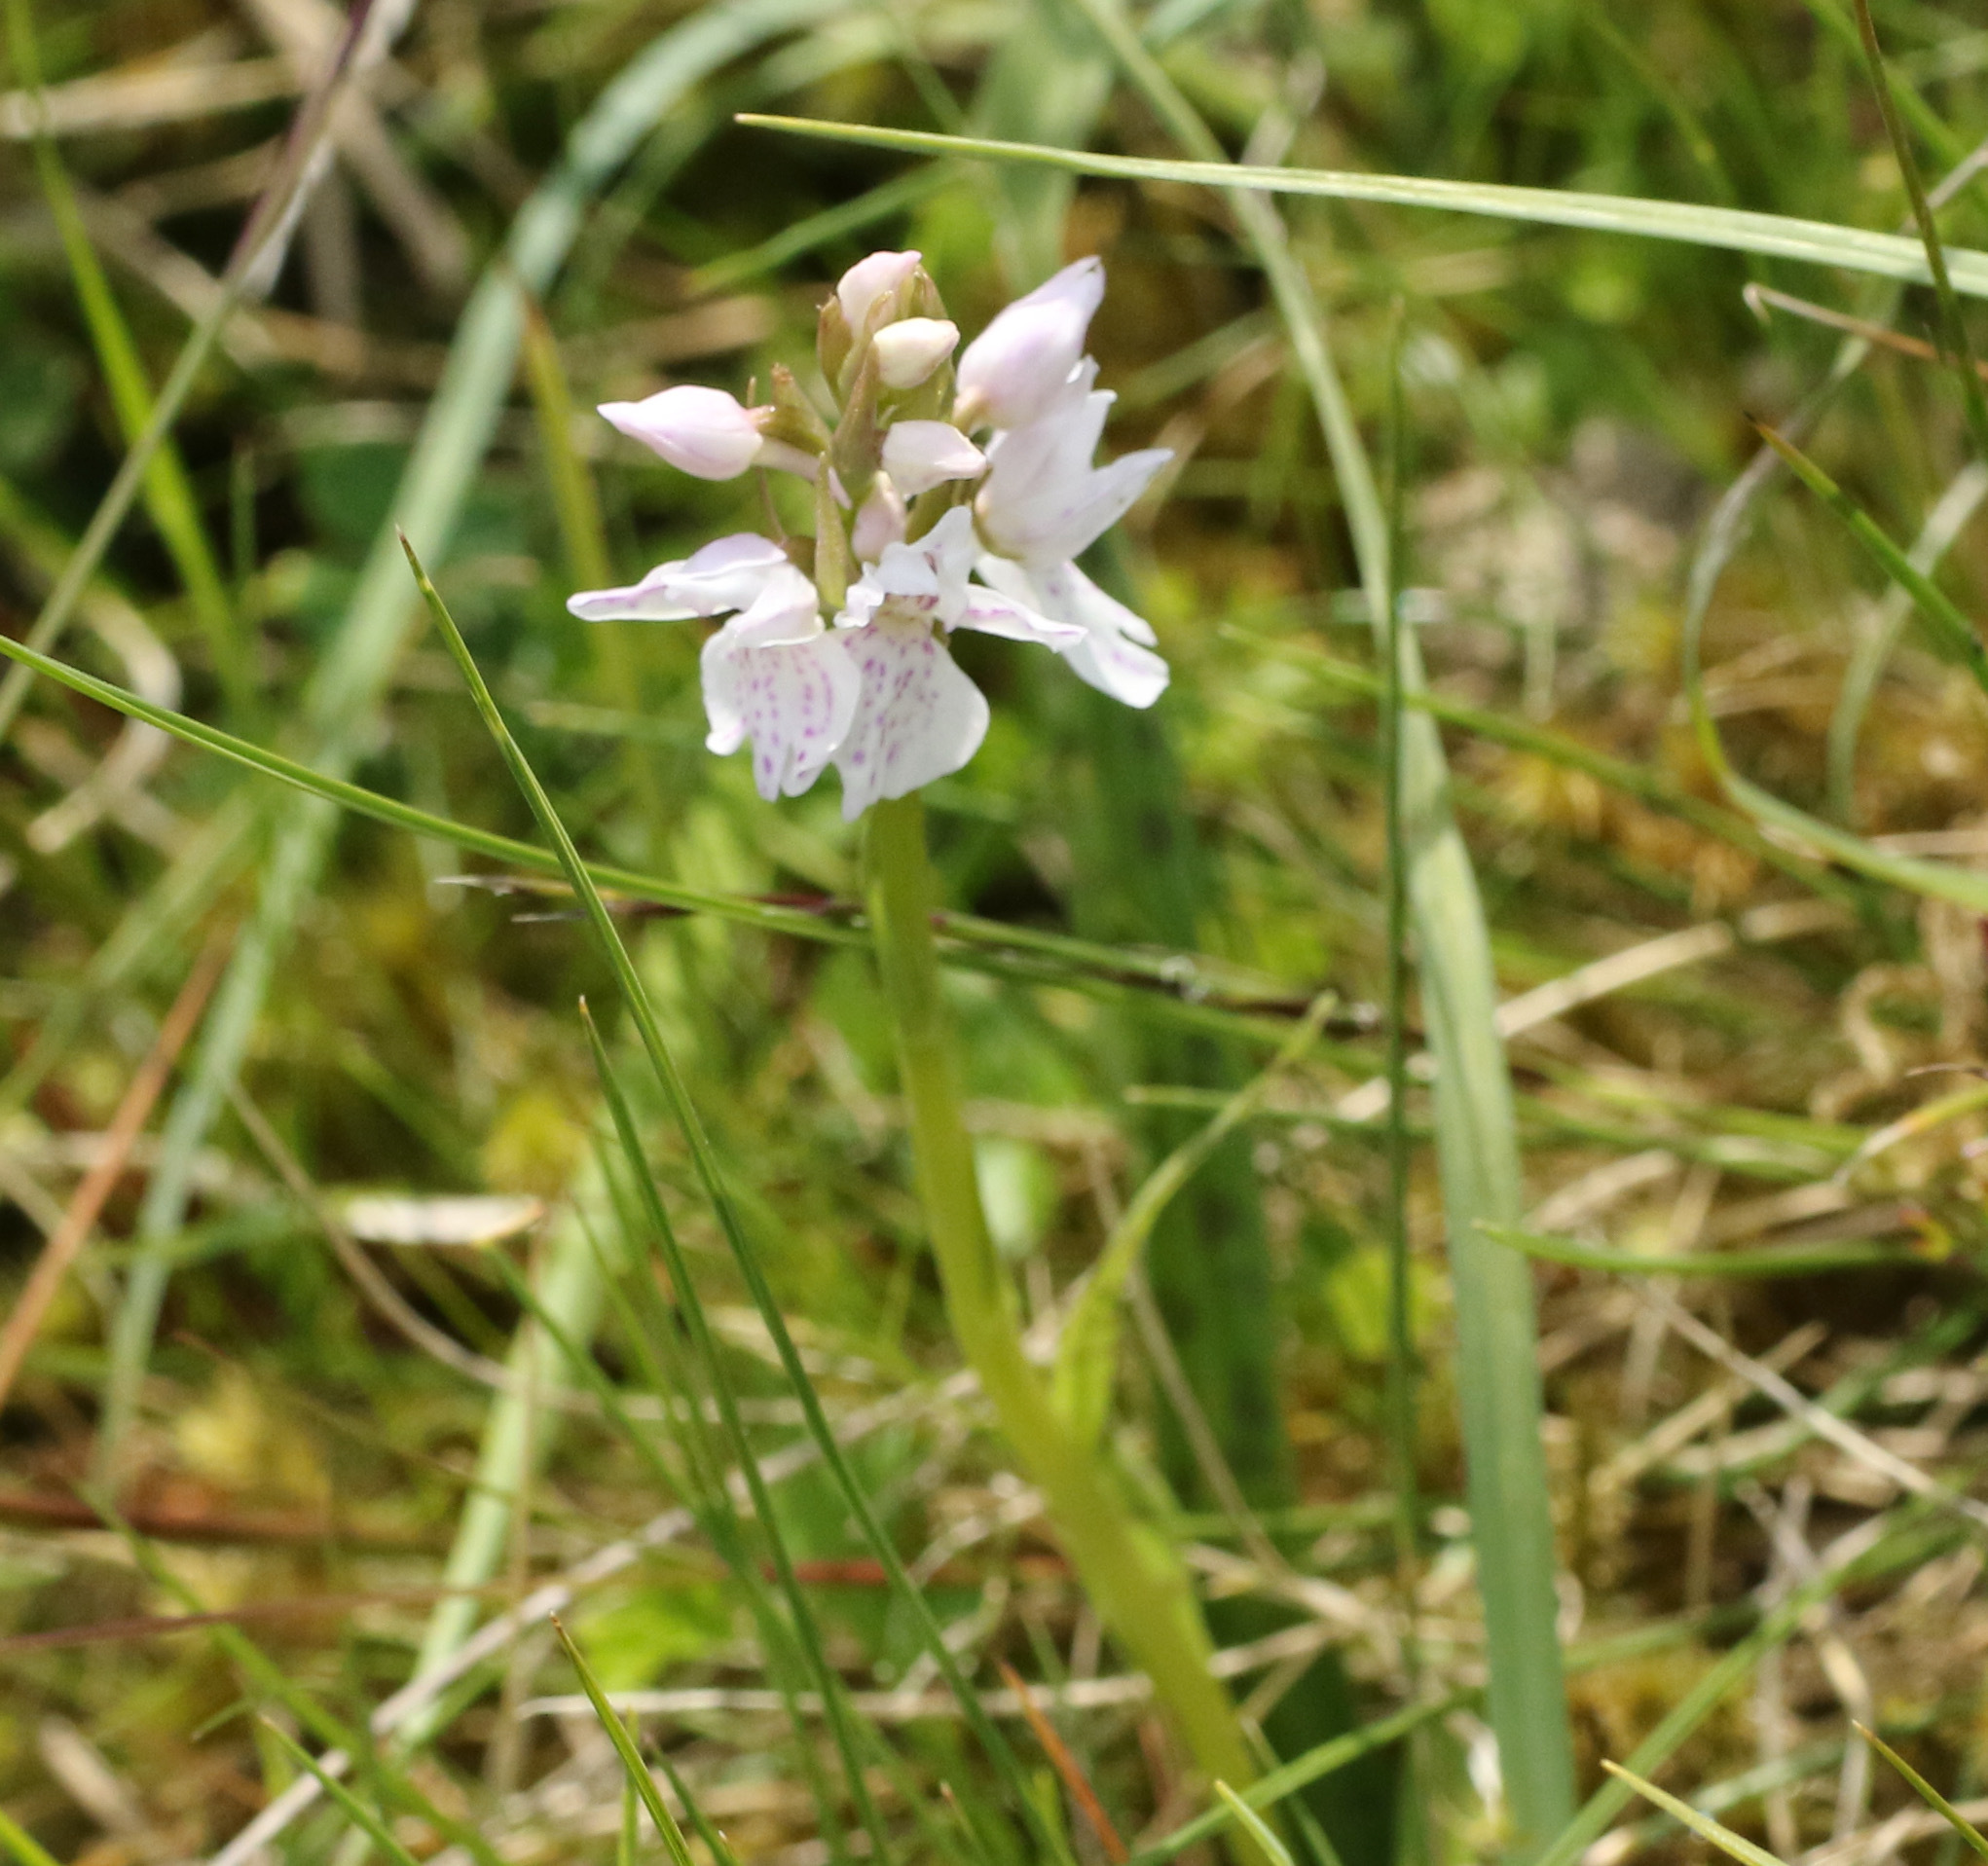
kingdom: Plantae
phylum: Tracheophyta
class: Liliopsida
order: Asparagales
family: Orchidaceae
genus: Dactylorhiza
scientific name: Dactylorhiza maculata
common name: Heath spotted-orchid
